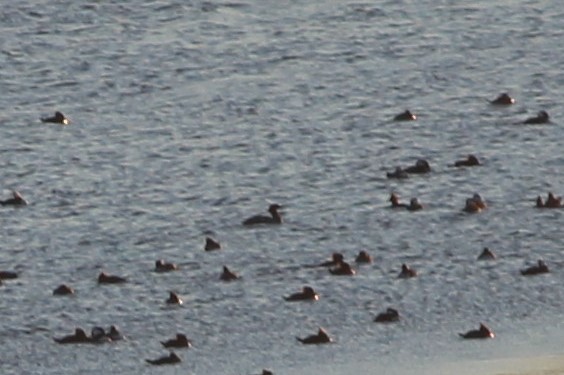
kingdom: Animalia
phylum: Chordata
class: Aves
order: Anseriformes
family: Anatidae
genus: Mergus
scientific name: Mergus merganser
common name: Common merganser
